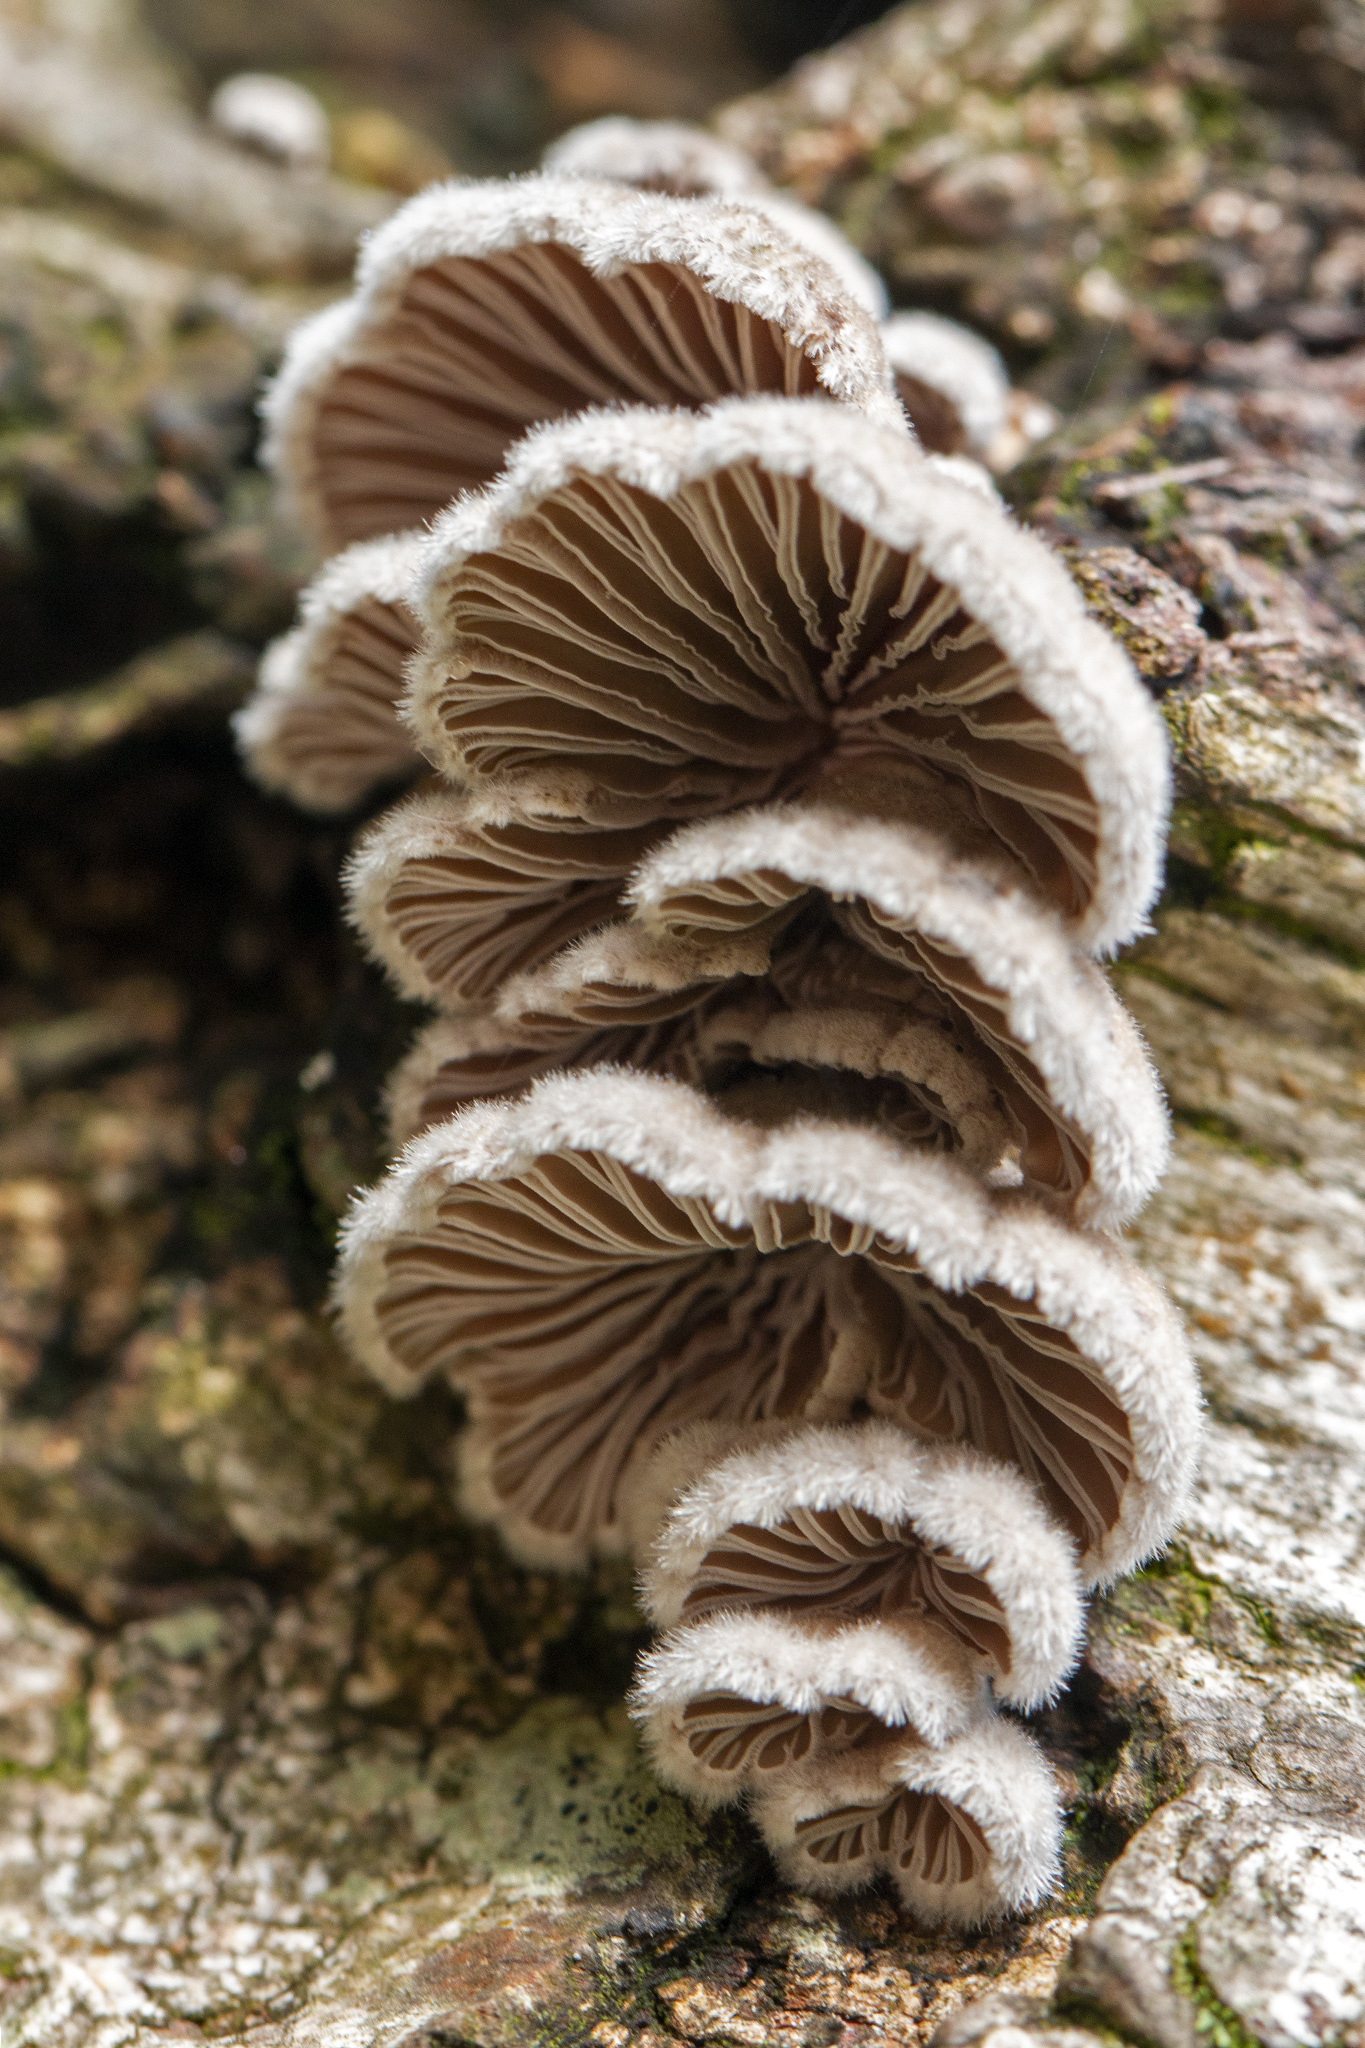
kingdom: Fungi
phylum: Basidiomycota
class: Agaricomycetes
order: Agaricales
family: Schizophyllaceae
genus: Schizophyllum
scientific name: Schizophyllum commune
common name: Common porecrust
